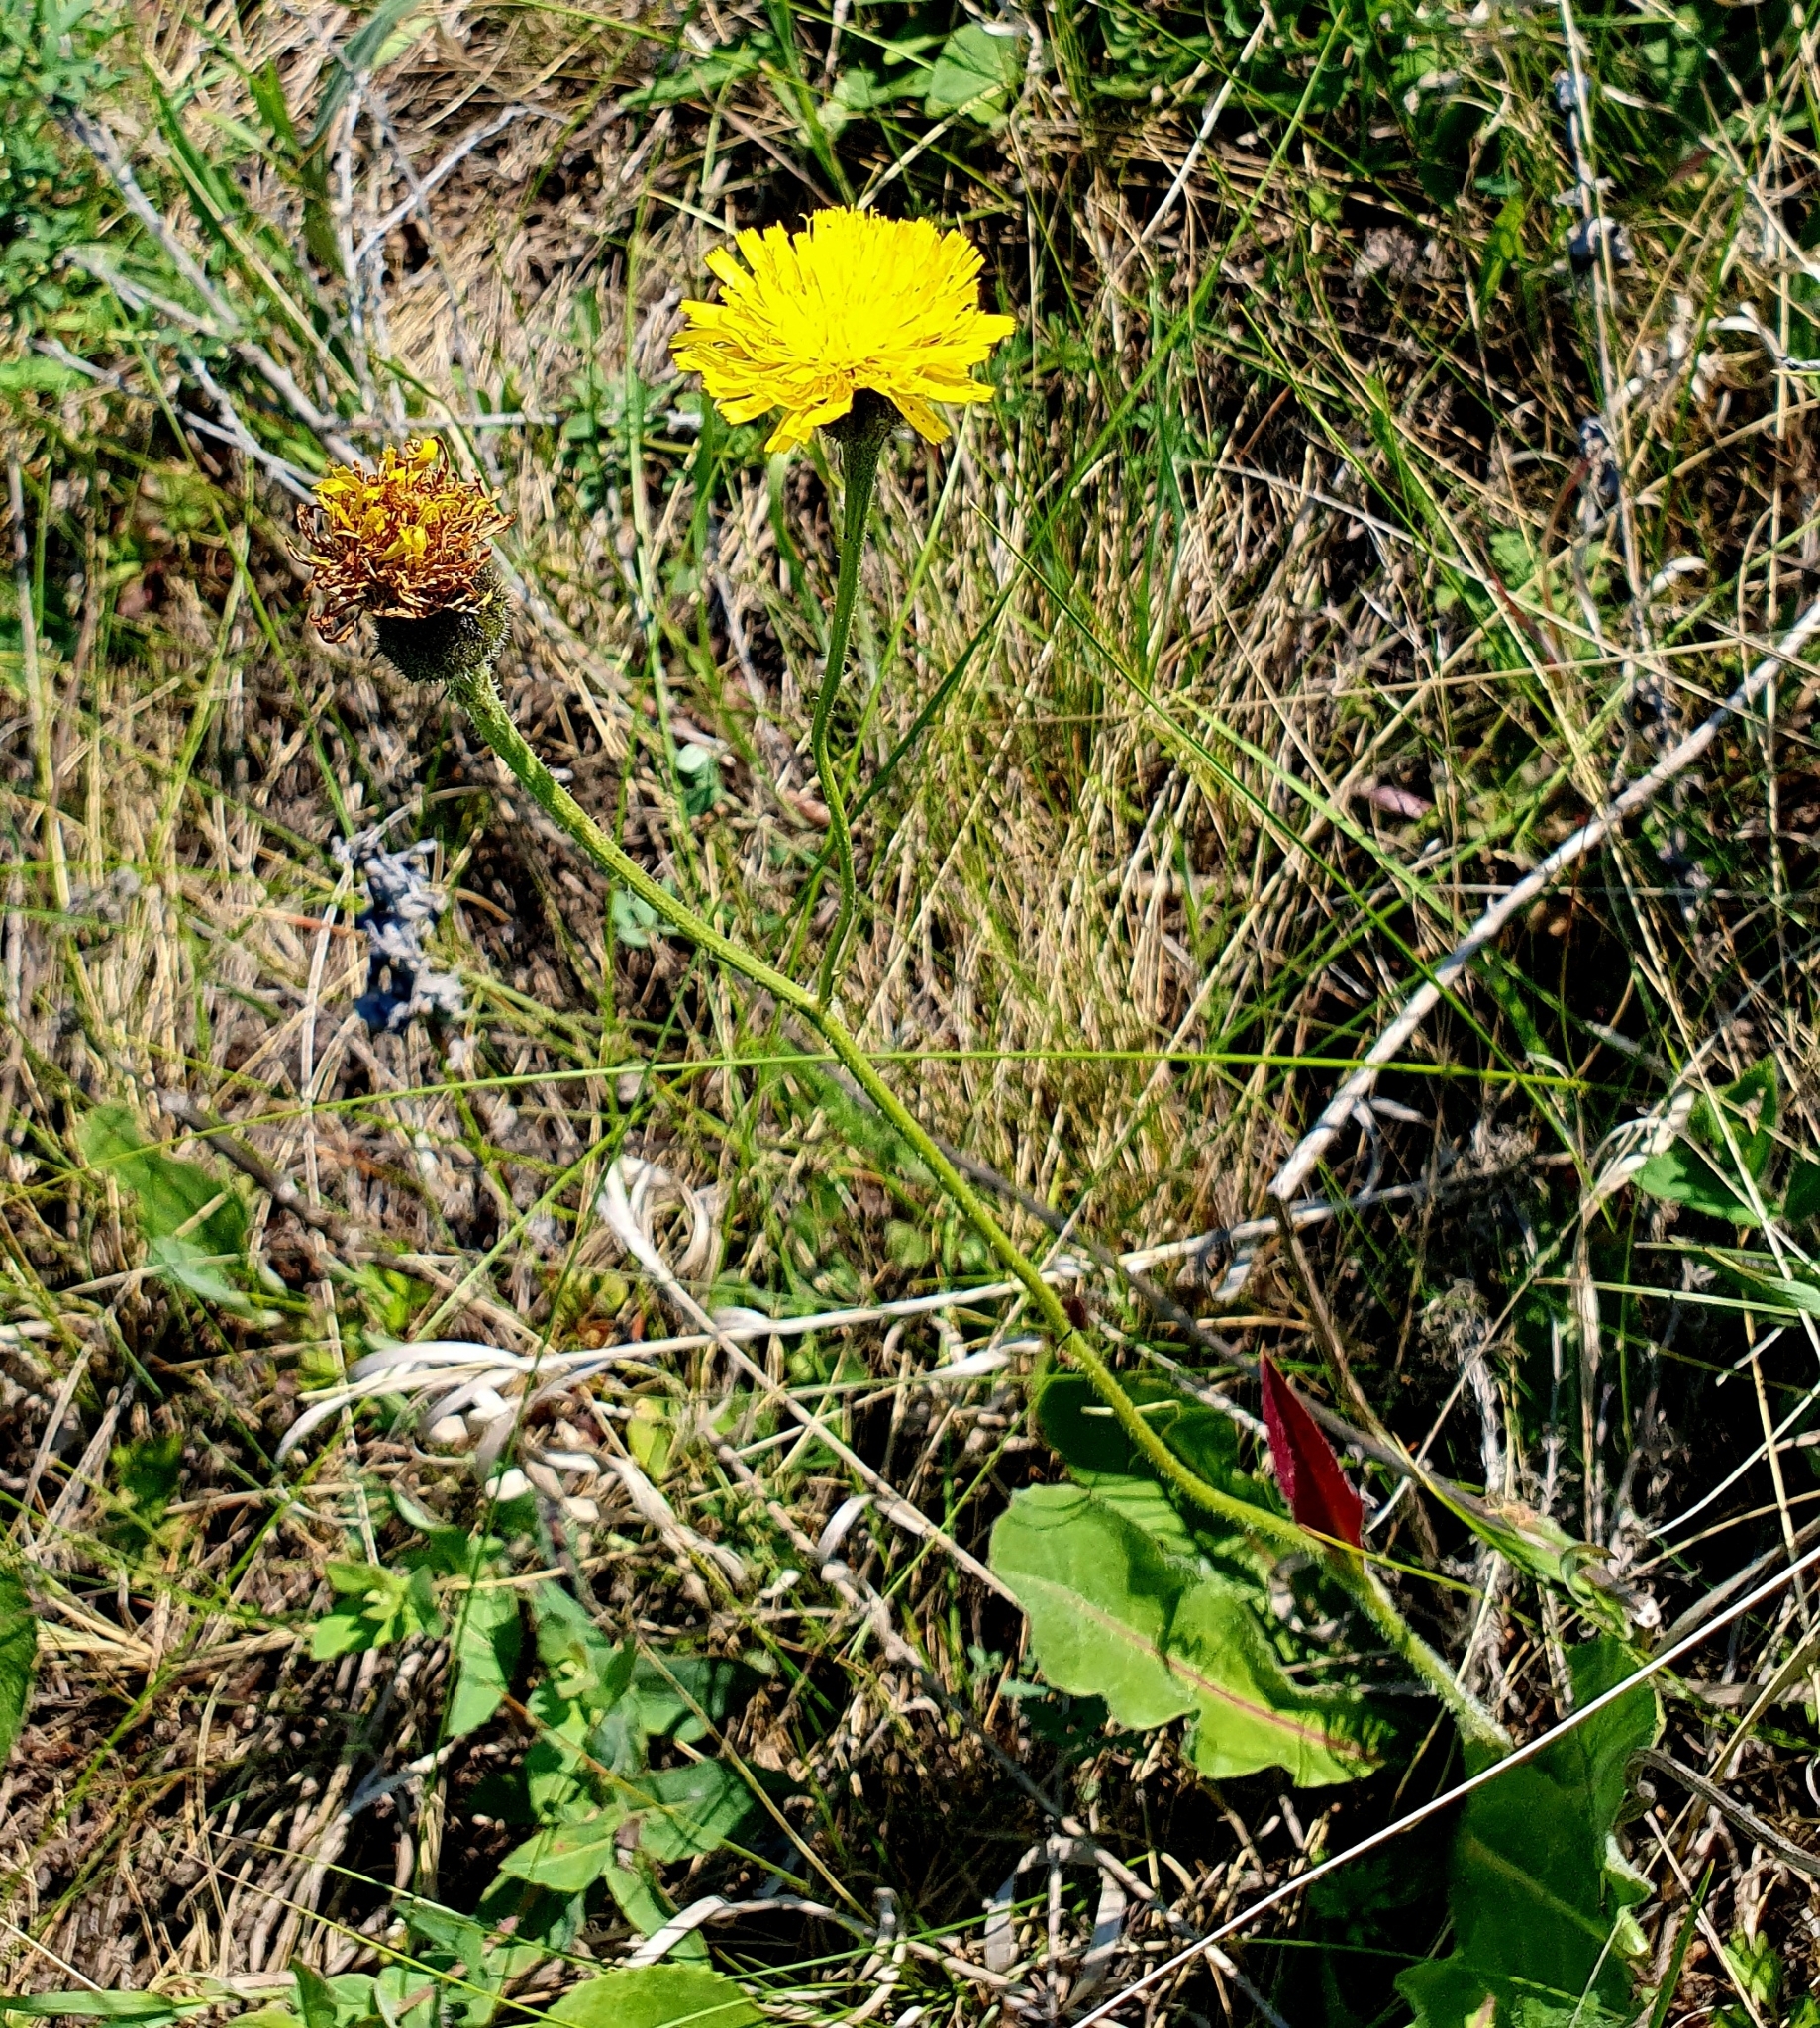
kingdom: Plantae
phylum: Tracheophyta
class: Magnoliopsida
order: Asterales
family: Asteraceae
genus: Trommsdorffia
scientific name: Trommsdorffia maculata
